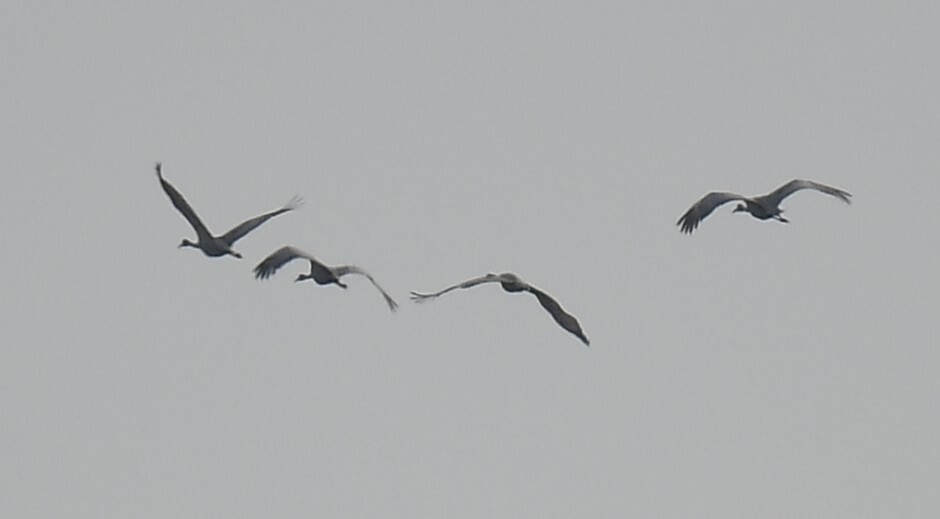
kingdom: Animalia
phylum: Chordata
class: Aves
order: Gruiformes
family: Gruidae
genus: Grus
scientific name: Grus canadensis
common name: Sandhill crane
